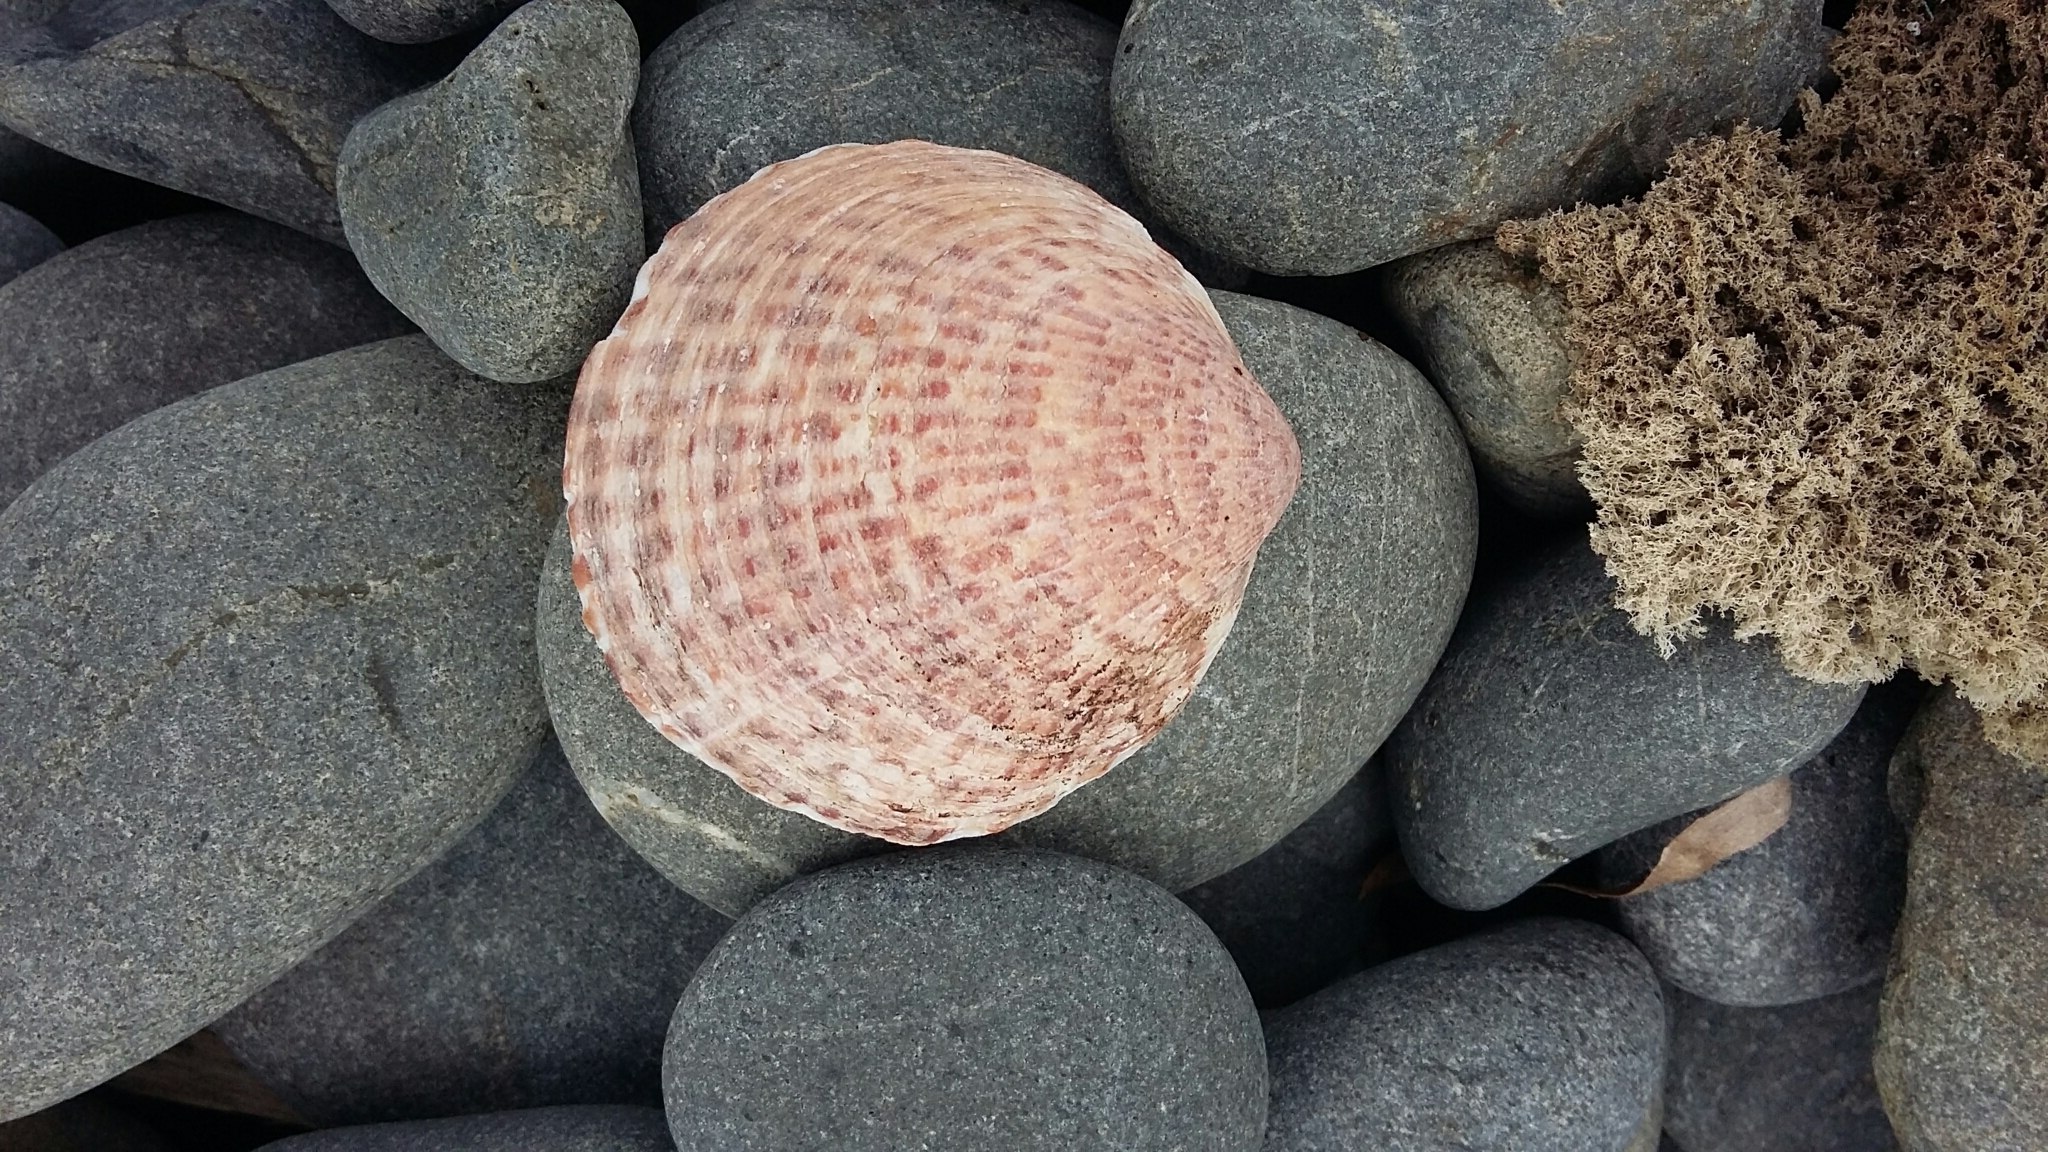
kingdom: Animalia
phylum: Mollusca
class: Bivalvia
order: Arcida
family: Glycymerididae
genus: Tucetona
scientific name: Tucetona laticostata
